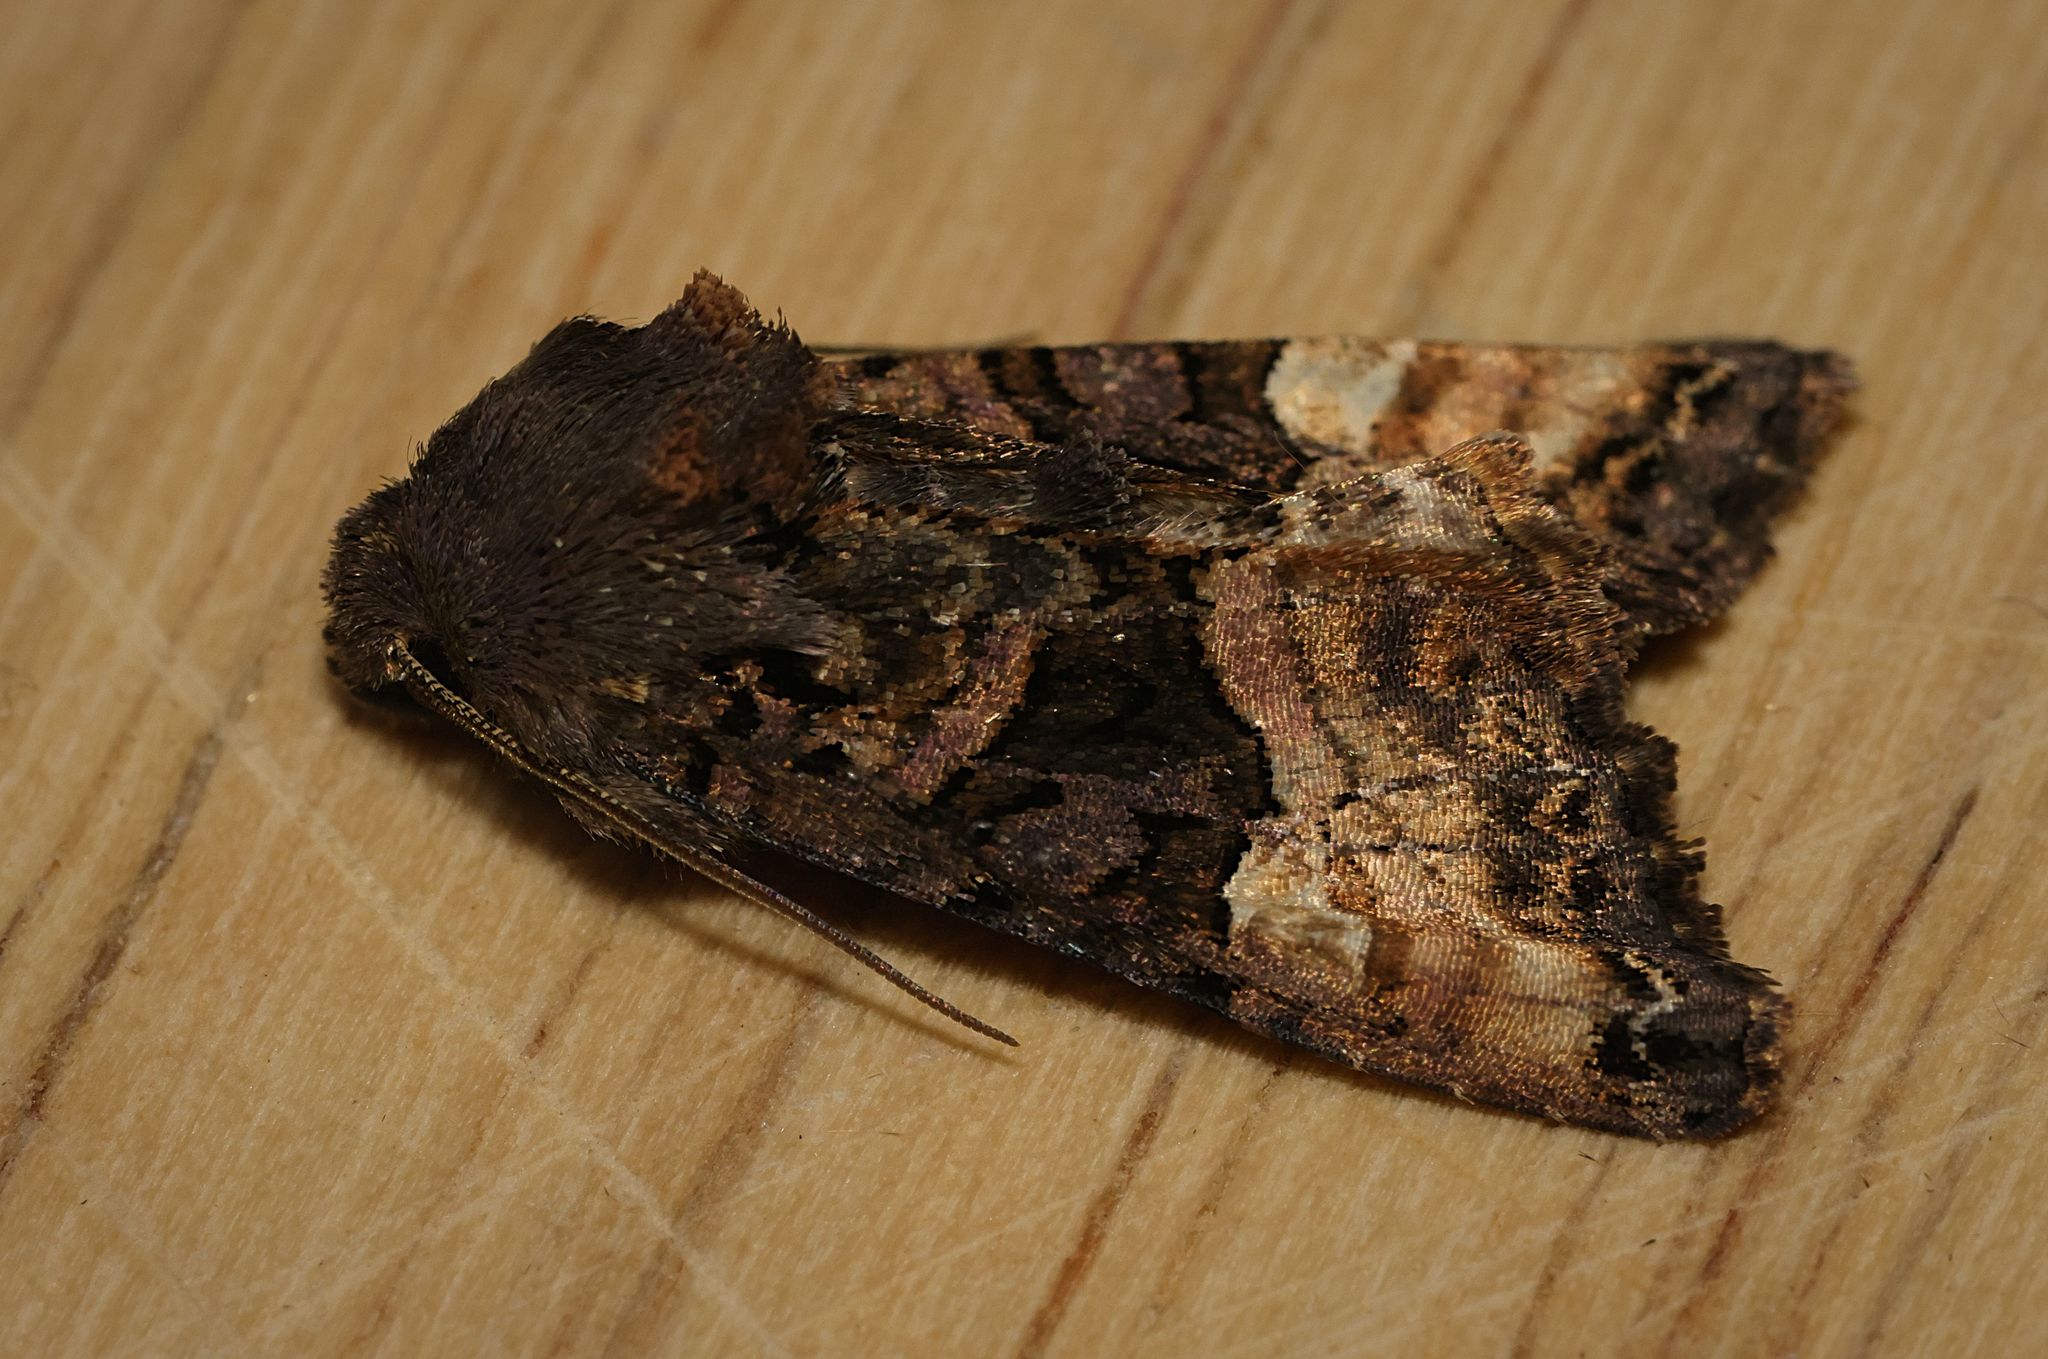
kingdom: Animalia
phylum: Arthropoda
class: Insecta
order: Lepidoptera
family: Noctuidae
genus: Euplexia
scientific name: Euplexia lucipara
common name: Small angle shades
